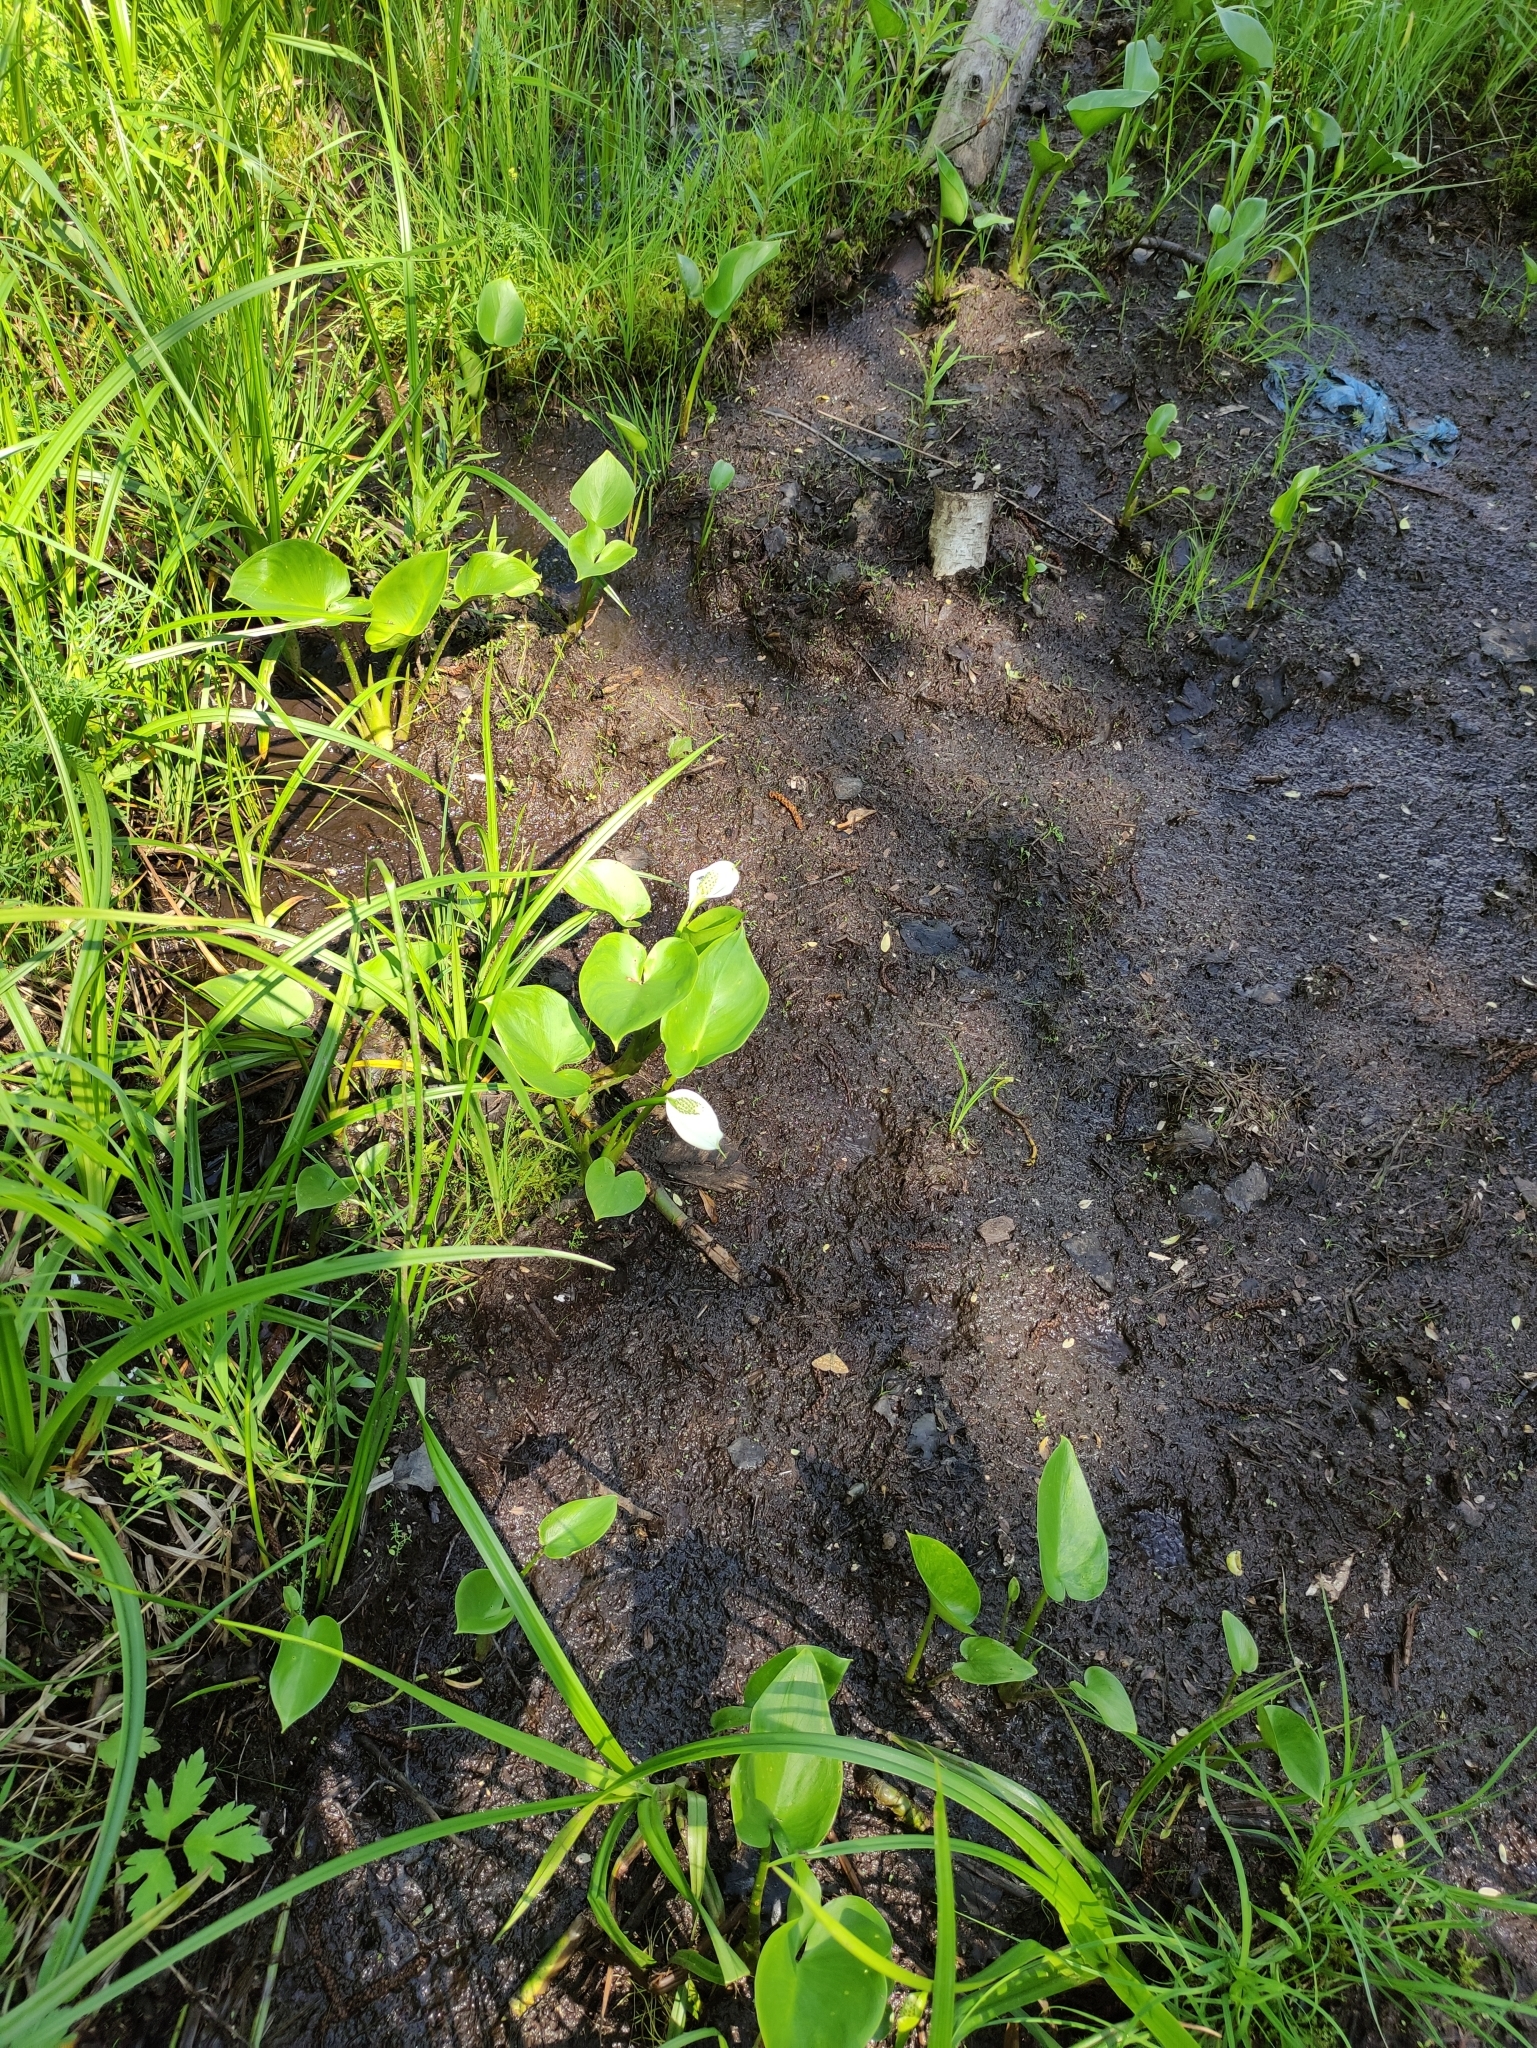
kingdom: Plantae
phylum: Tracheophyta
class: Liliopsida
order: Alismatales
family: Araceae
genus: Calla
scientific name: Calla palustris
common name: Bog arum
